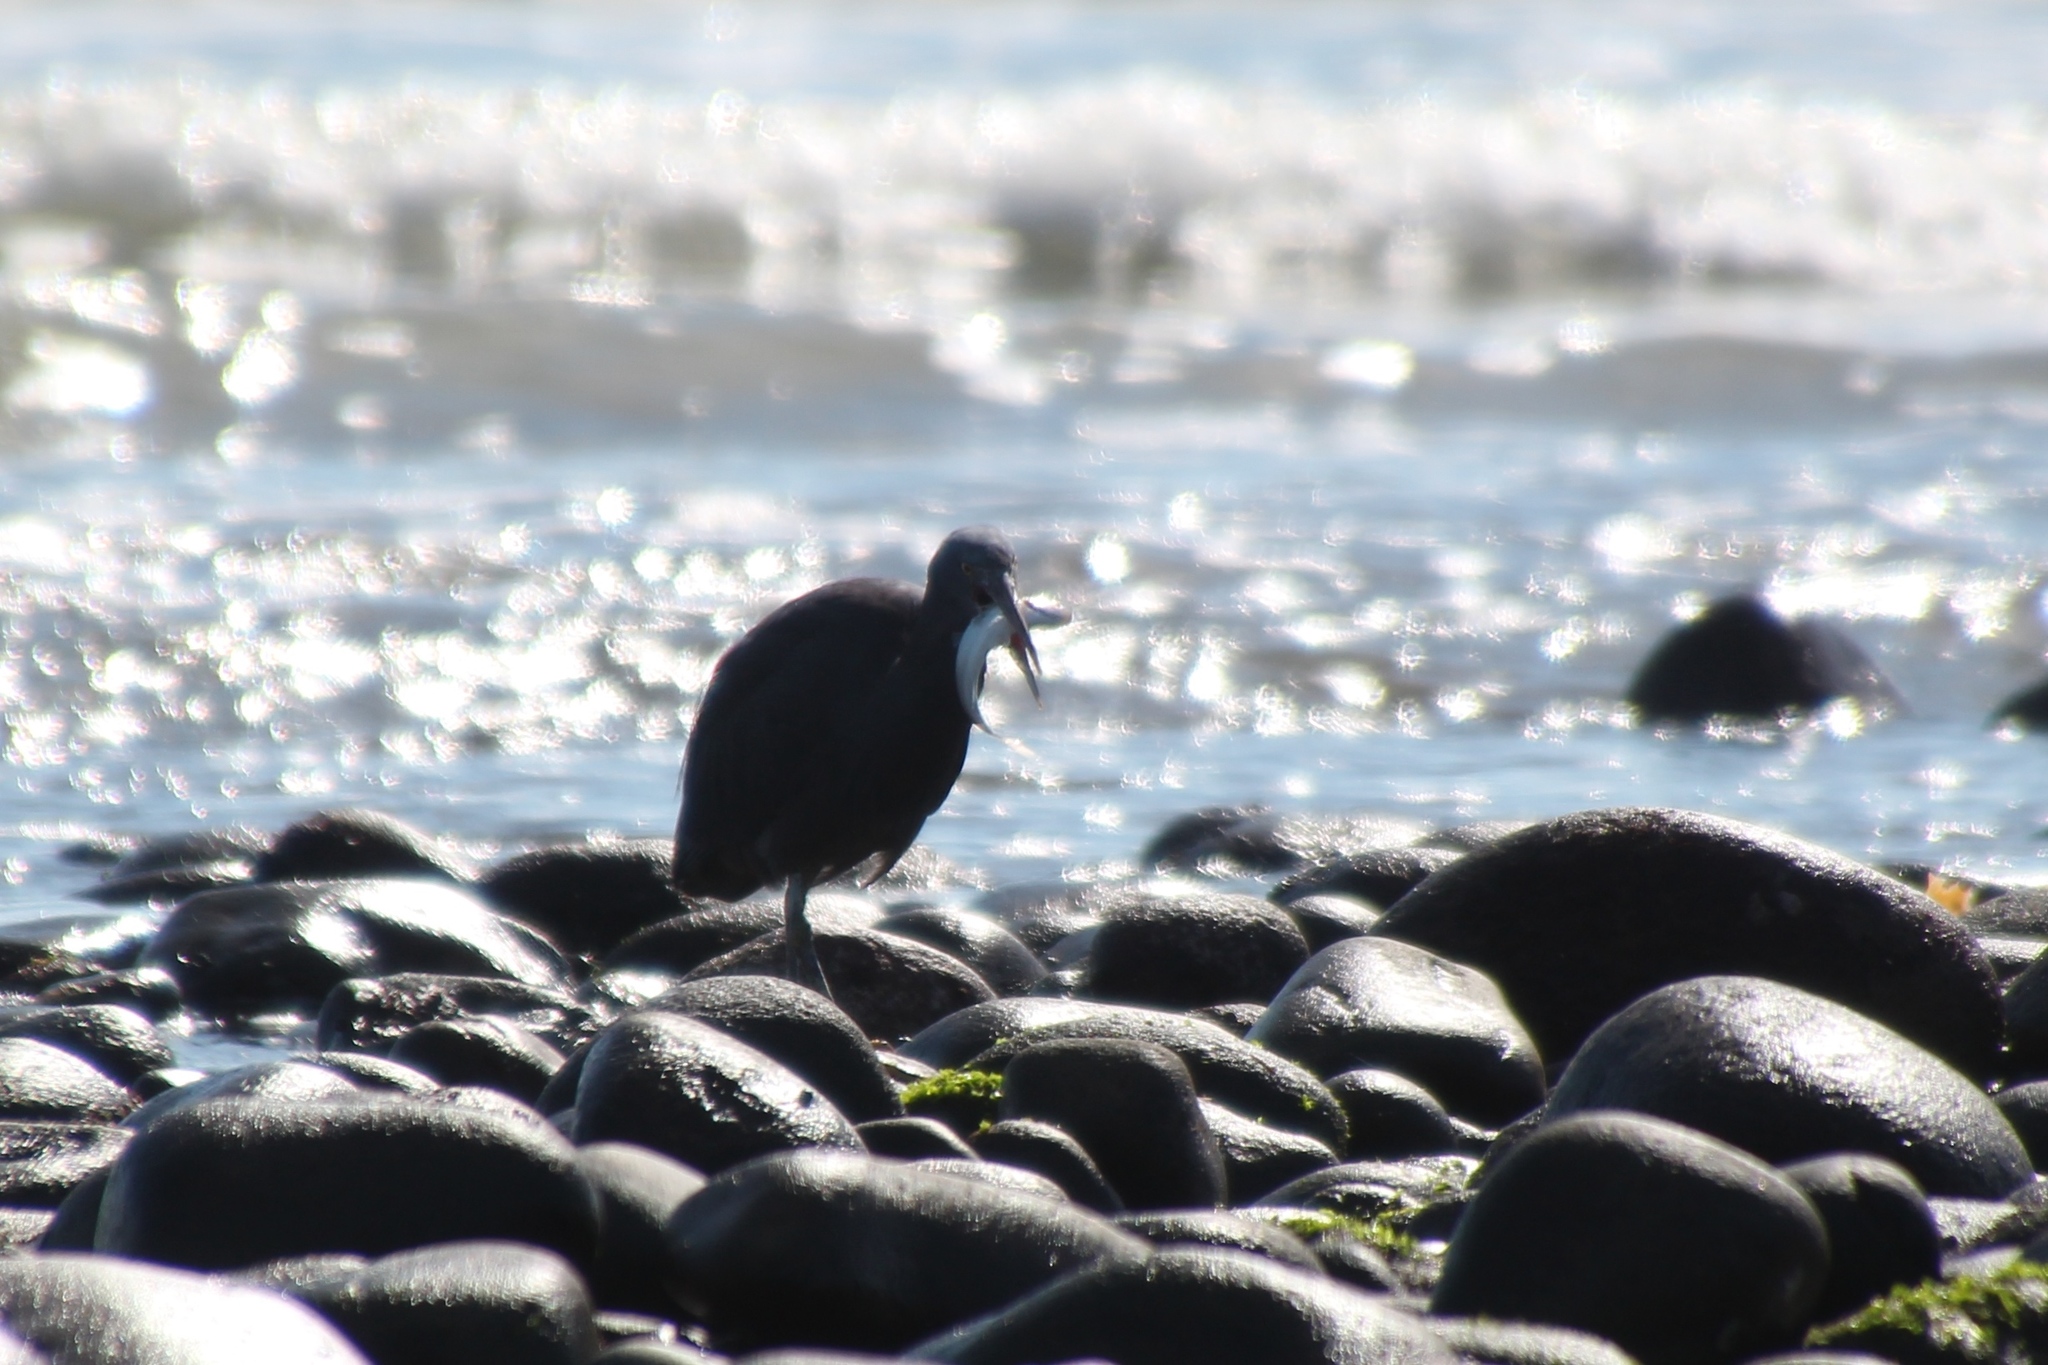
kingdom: Animalia
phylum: Chordata
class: Aves
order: Pelecaniformes
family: Ardeidae
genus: Egretta
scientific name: Egretta sacra
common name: Pacific reef heron
